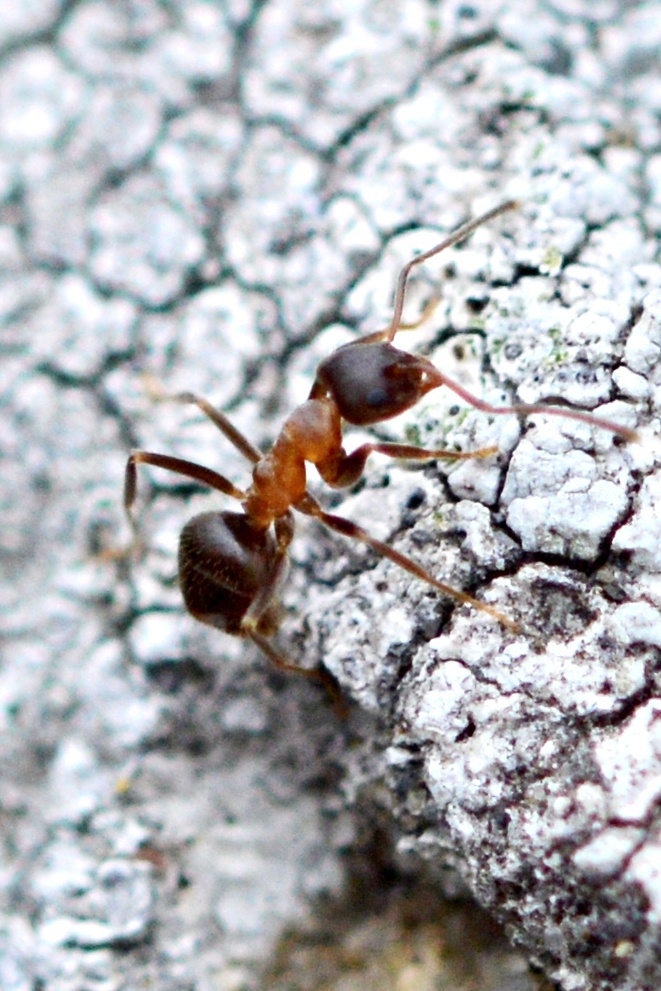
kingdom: Animalia
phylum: Arthropoda
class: Insecta
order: Hymenoptera
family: Formicidae
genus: Lasius
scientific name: Lasius emarginatus
